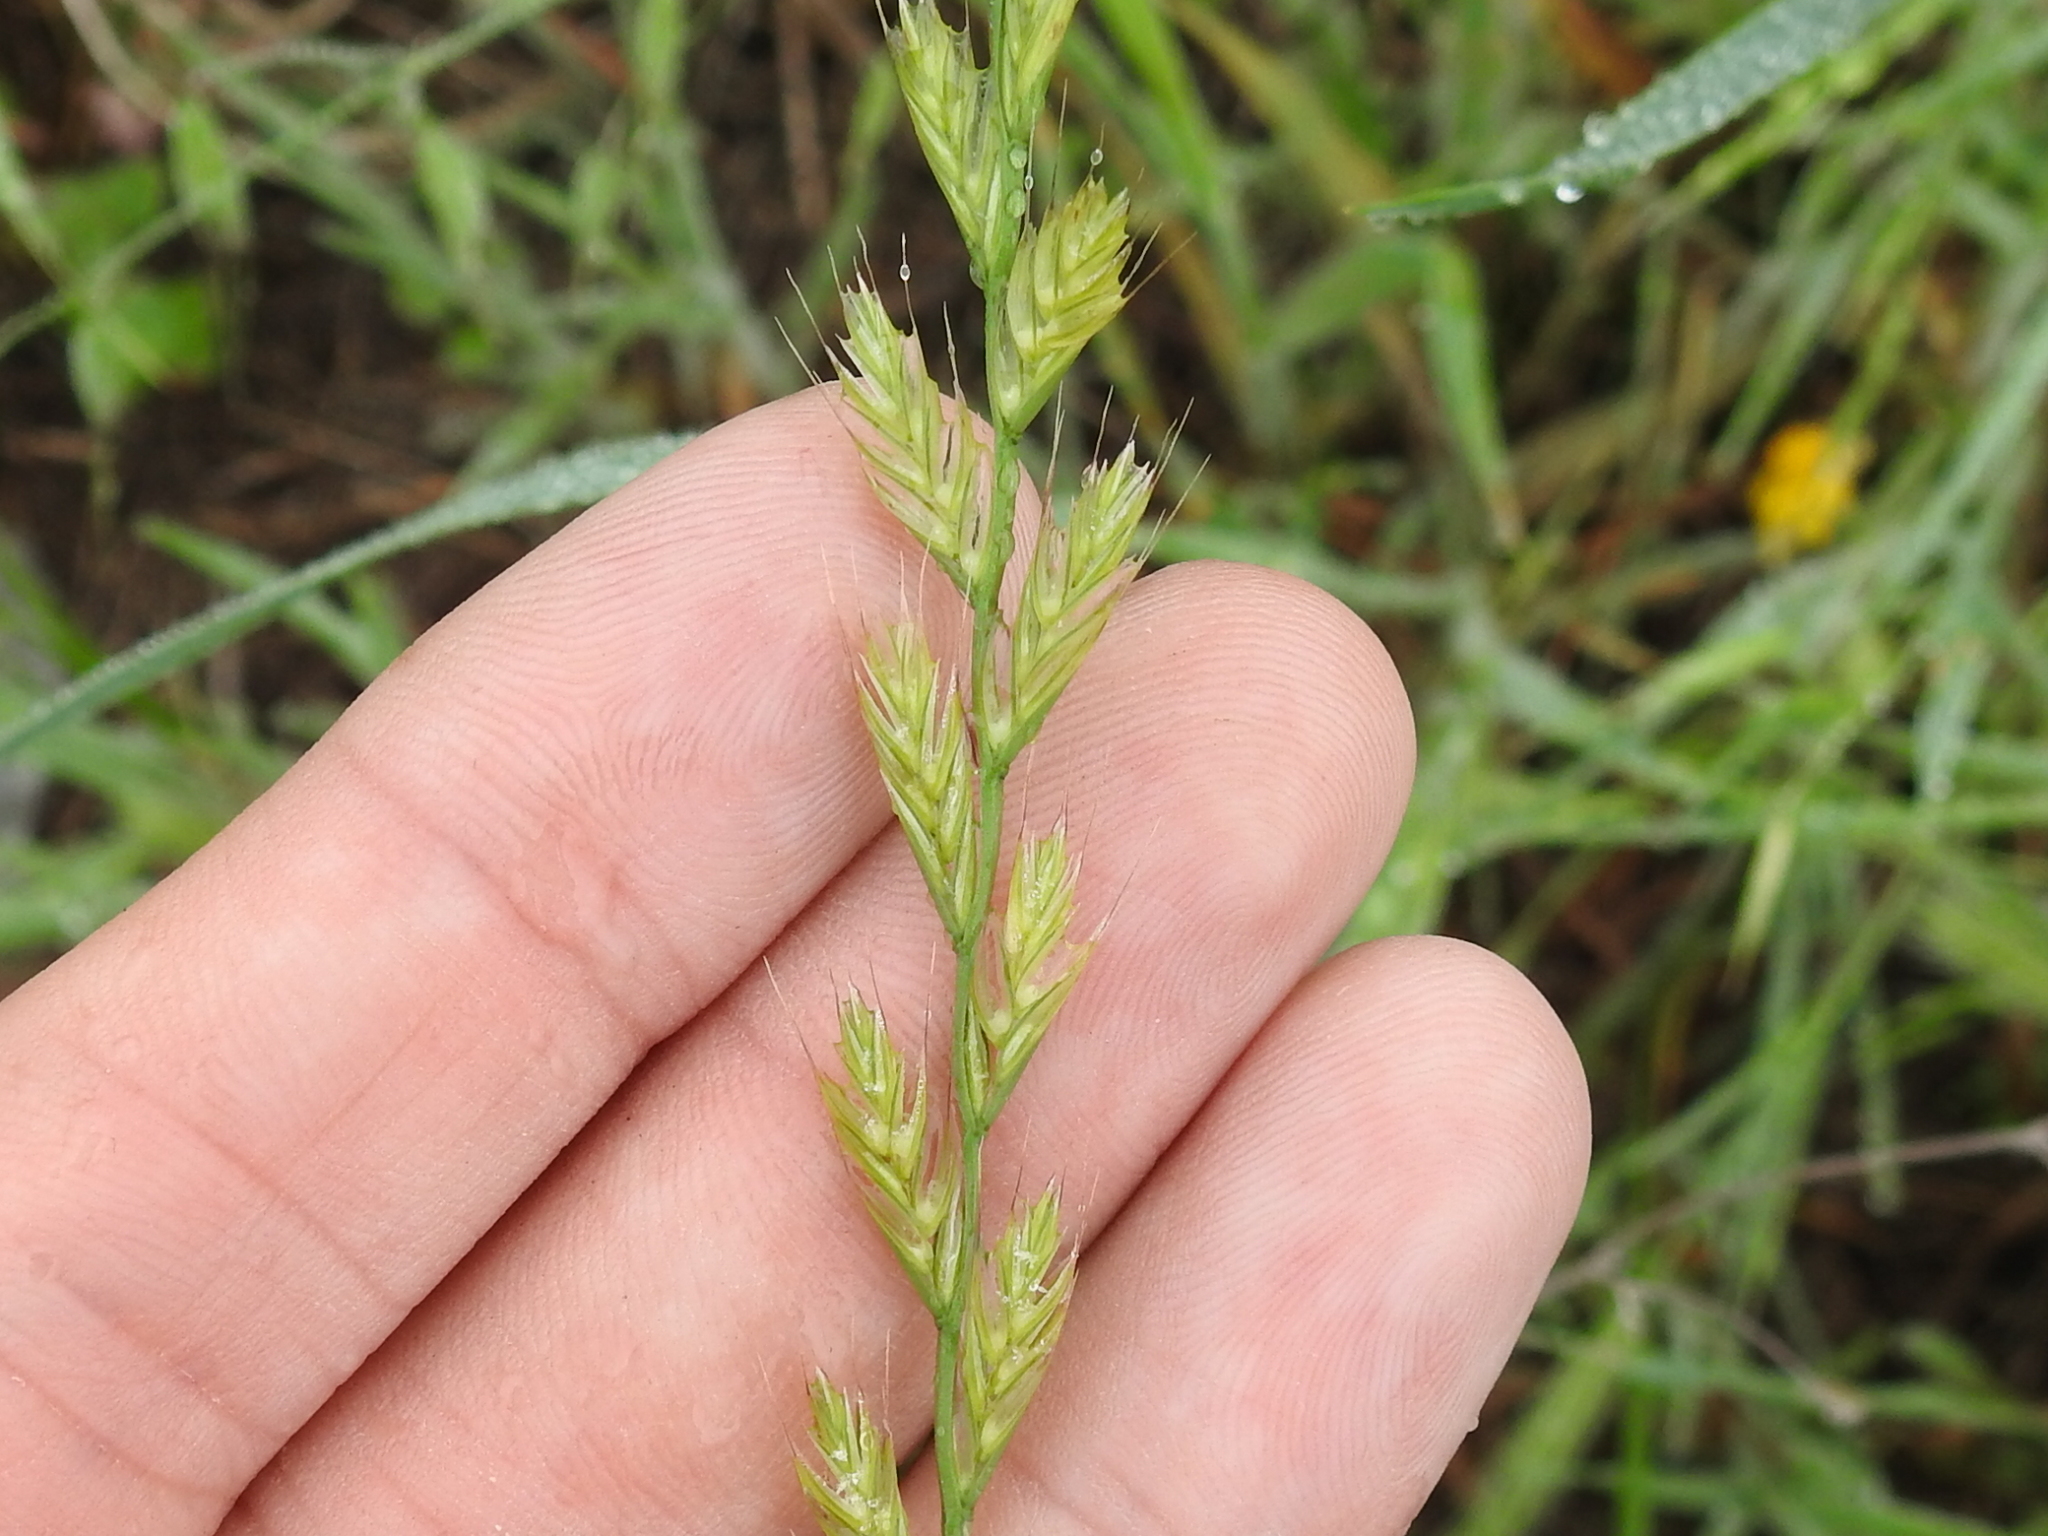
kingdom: Plantae
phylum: Tracheophyta
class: Liliopsida
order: Poales
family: Poaceae
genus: Lolium
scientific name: Lolium perenne
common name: Perennial ryegrass
